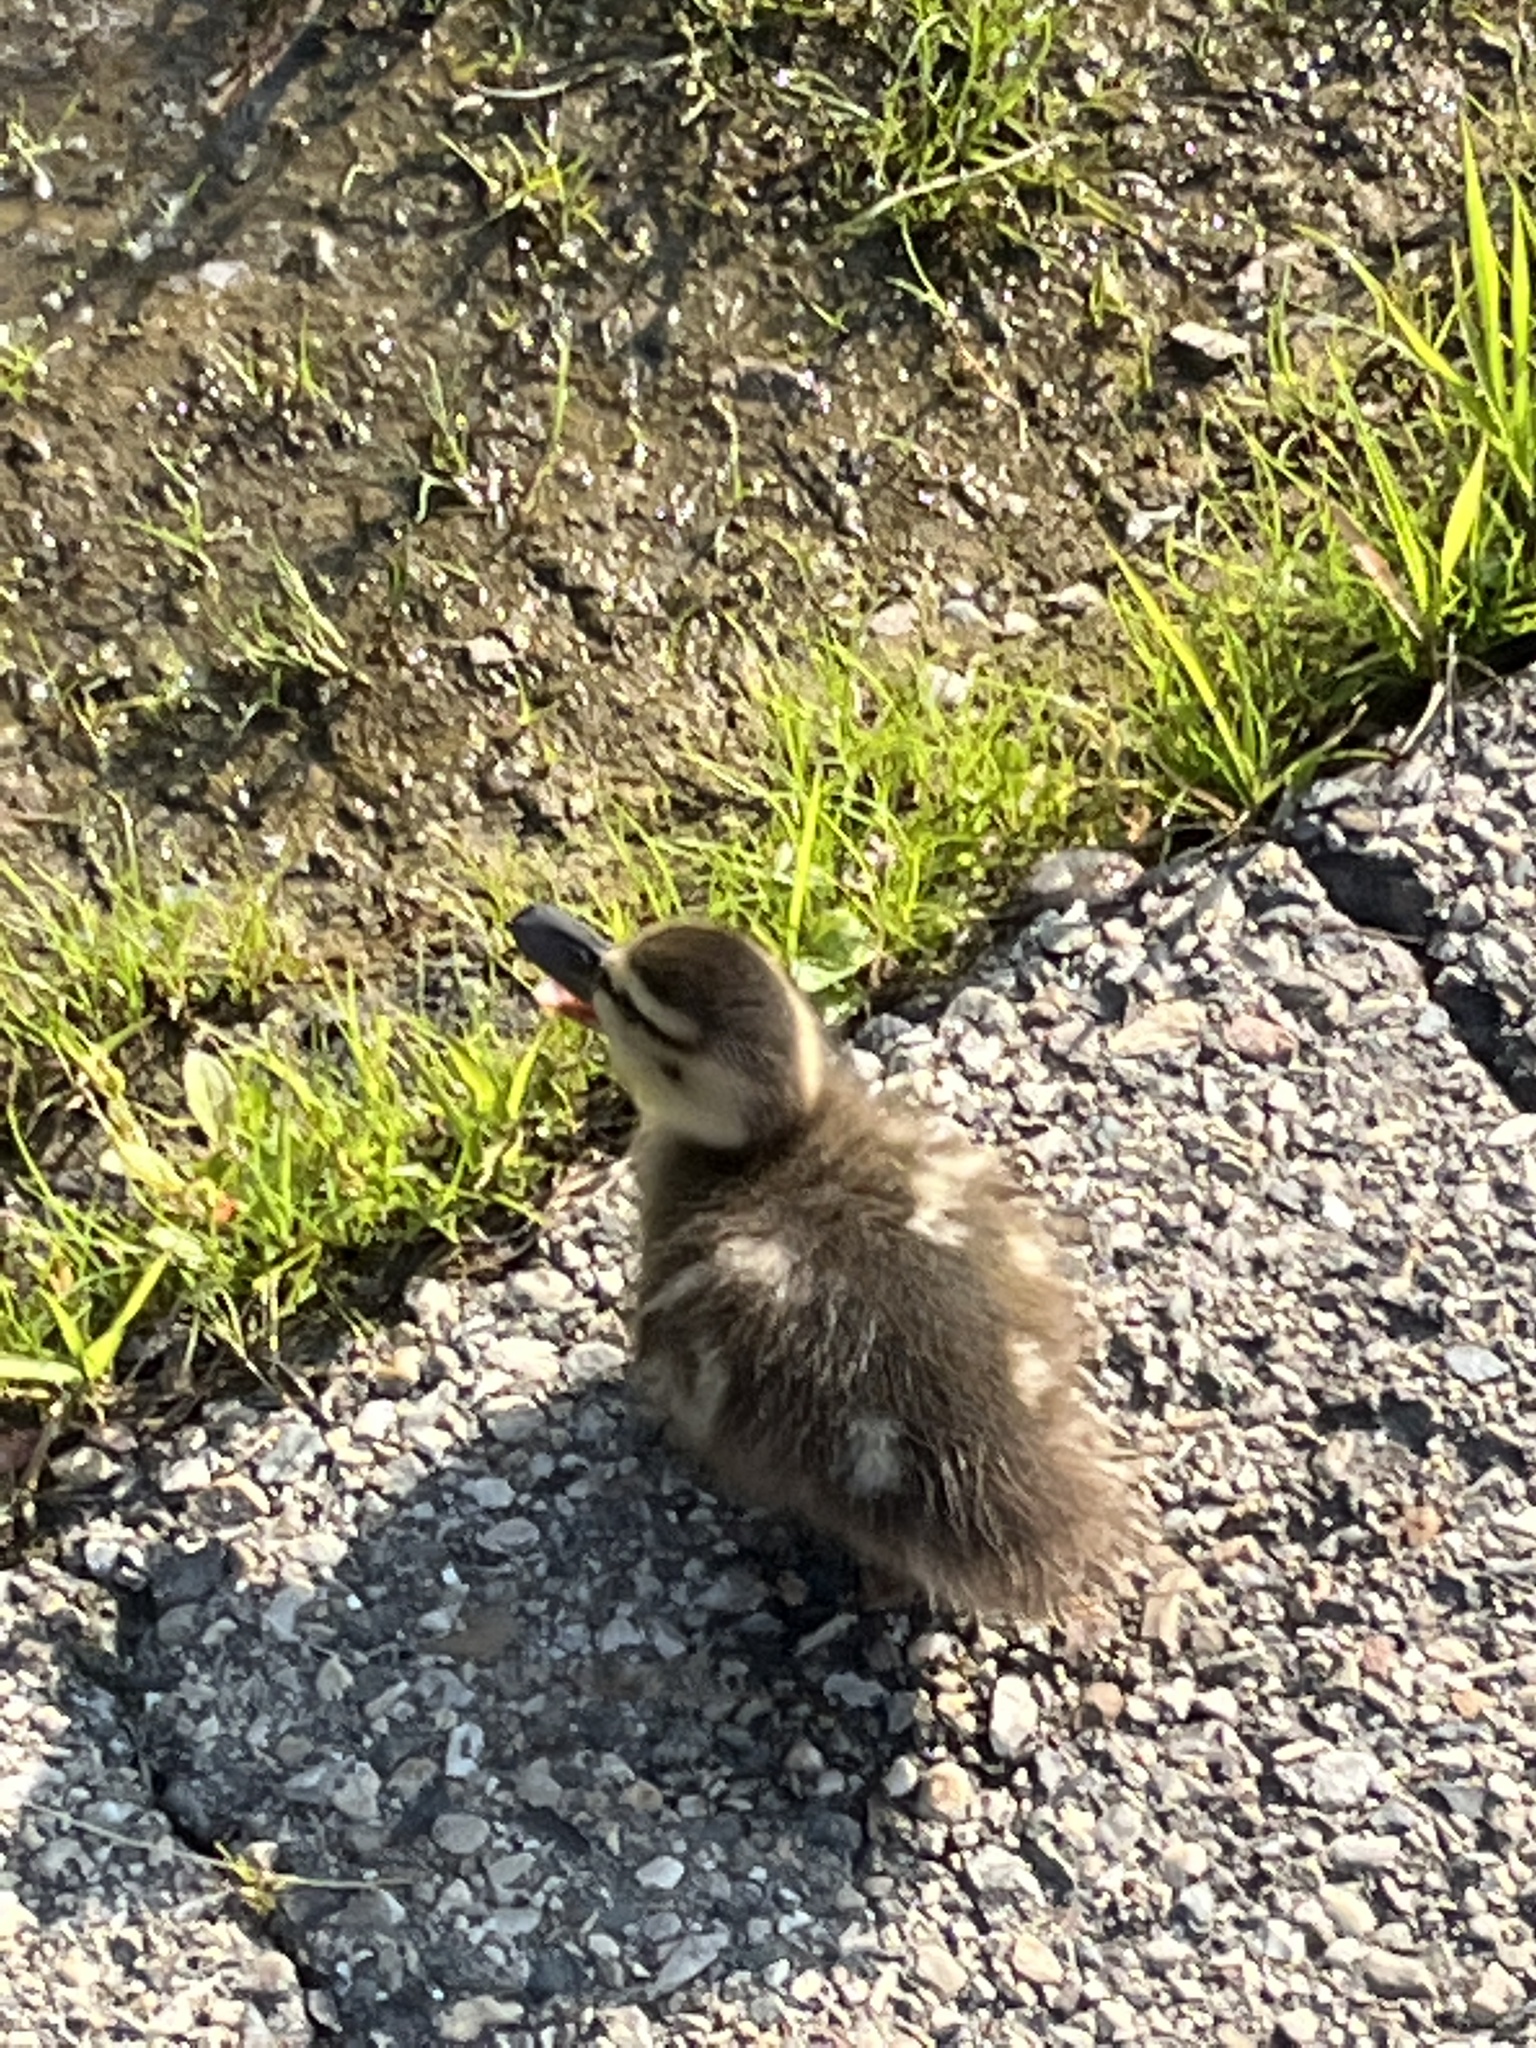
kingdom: Animalia
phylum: Chordata
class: Aves
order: Anseriformes
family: Anatidae
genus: Anas
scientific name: Anas platyrhynchos
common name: Mallard
